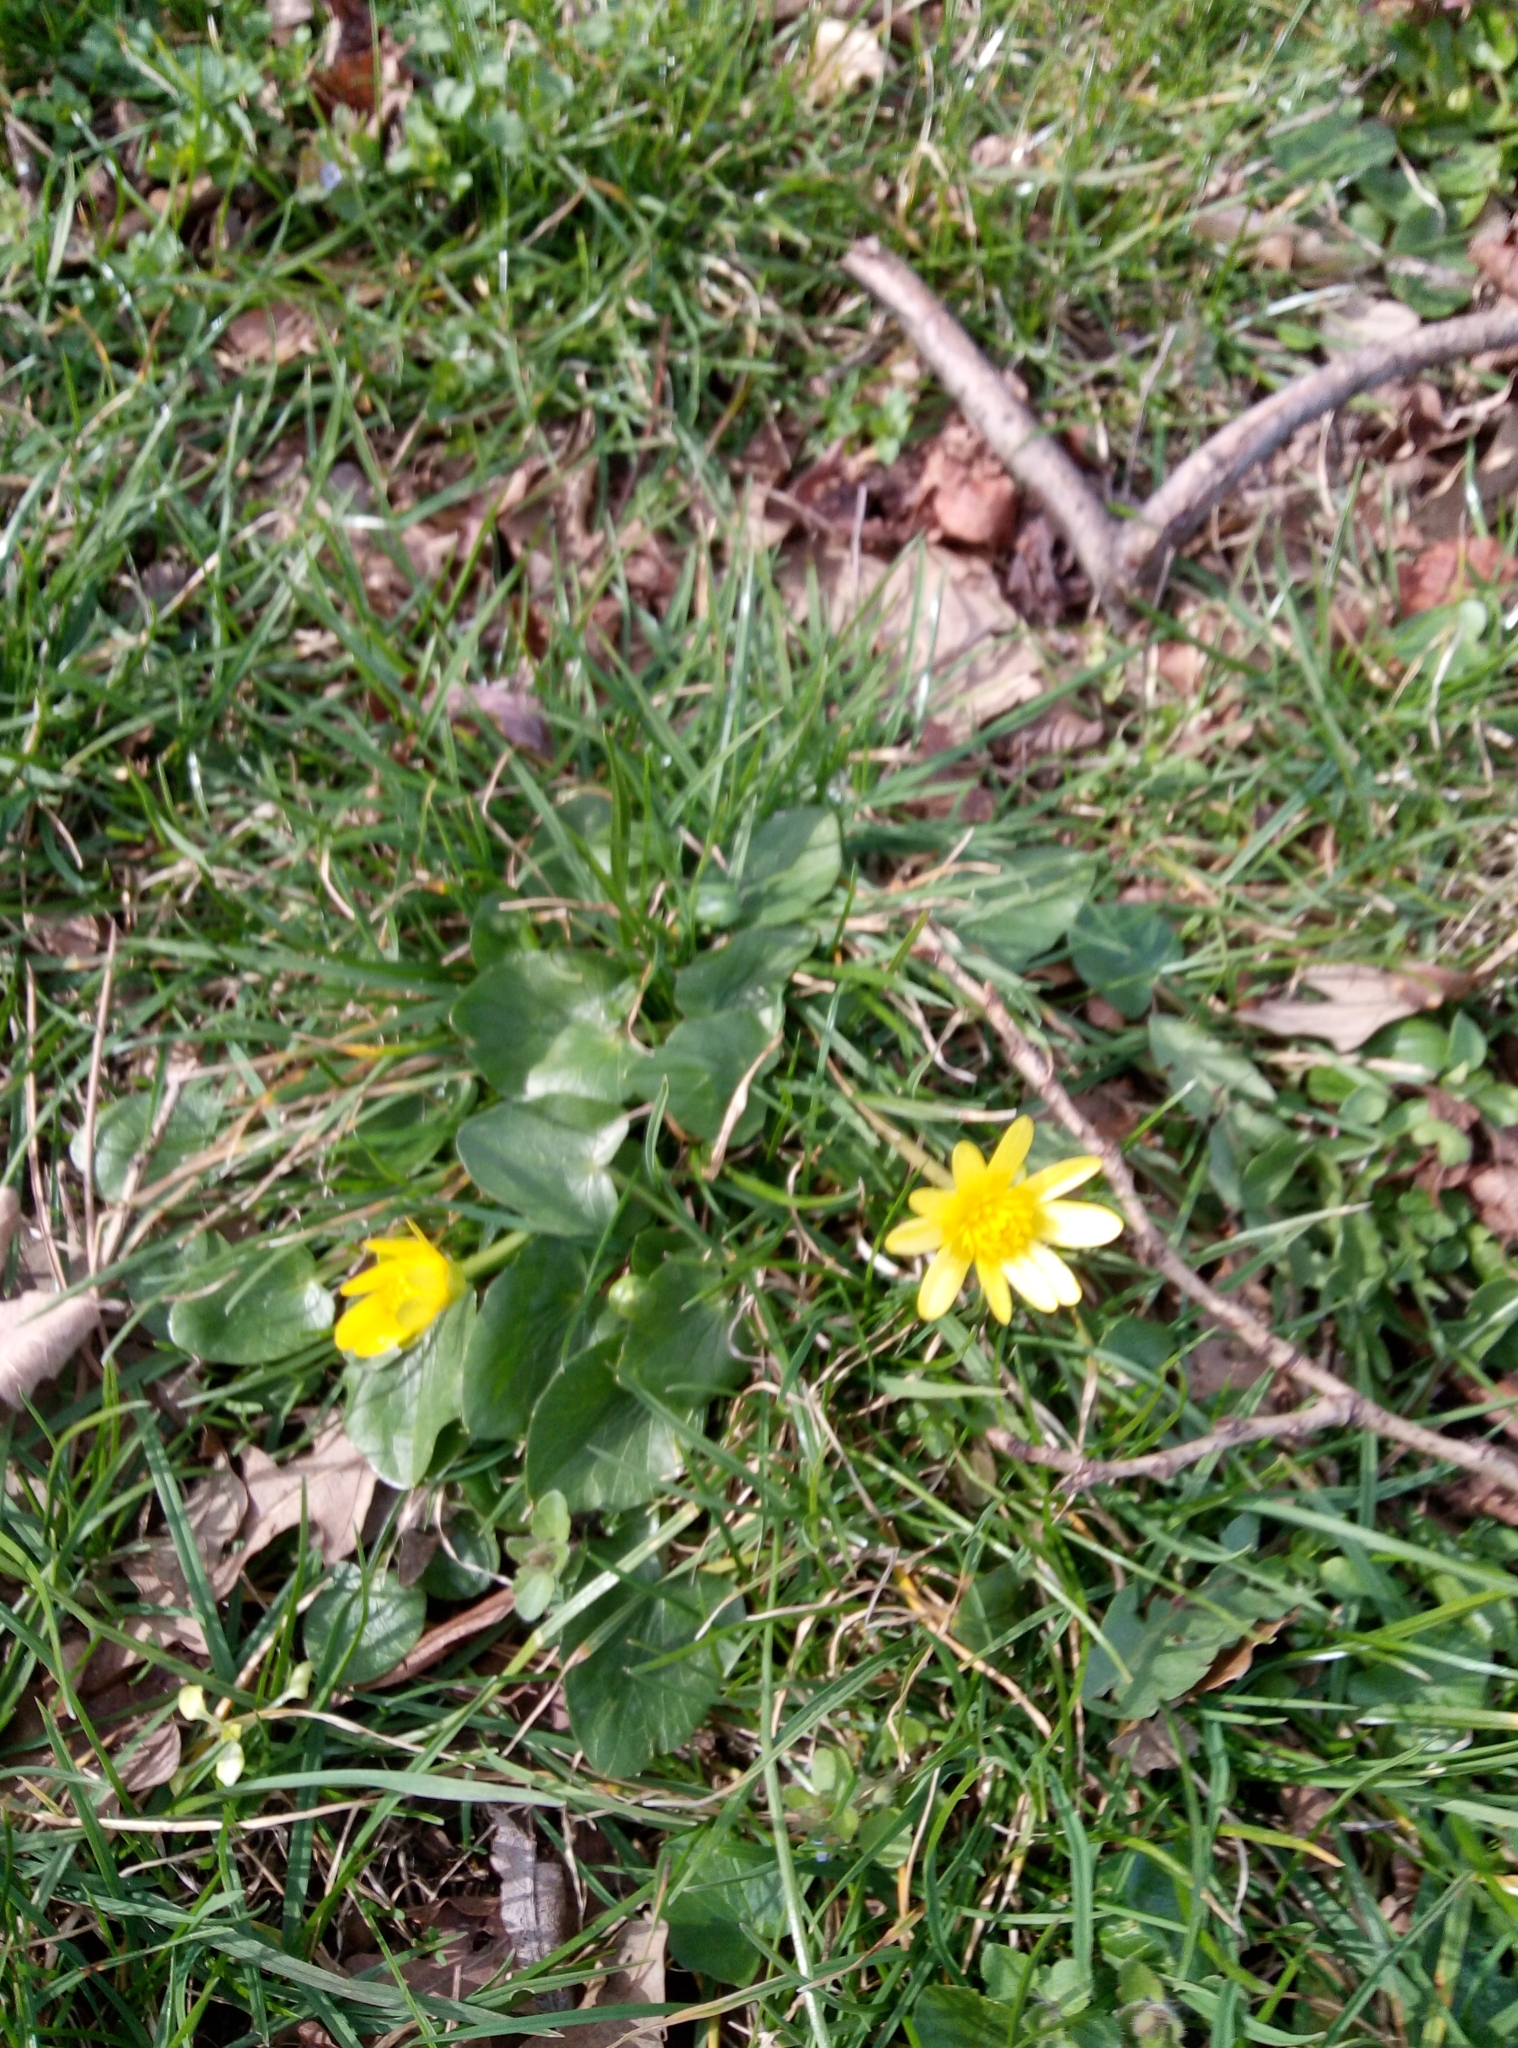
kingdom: Plantae
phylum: Tracheophyta
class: Magnoliopsida
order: Ranunculales
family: Ranunculaceae
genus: Ficaria
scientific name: Ficaria verna
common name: Lesser celandine
